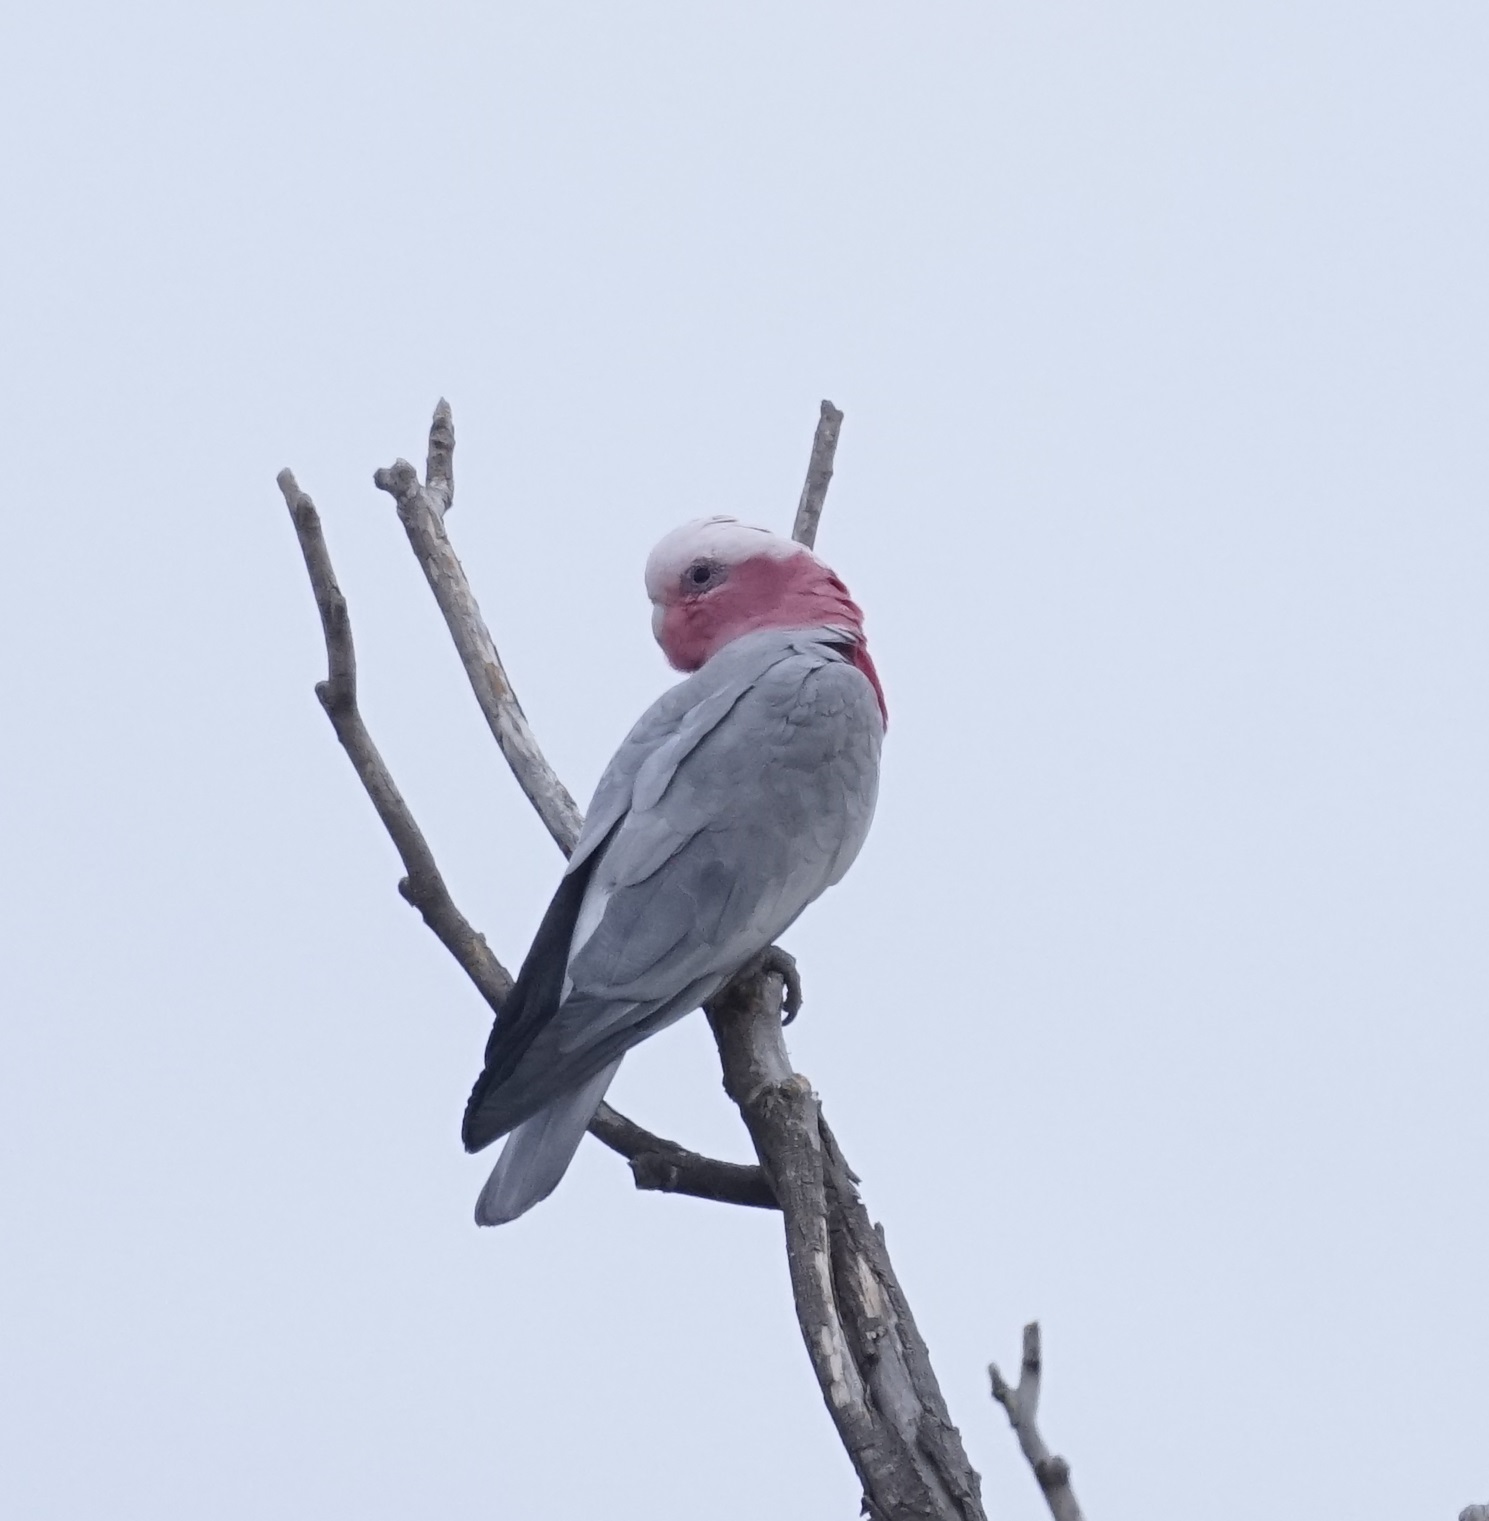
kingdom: Animalia
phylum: Chordata
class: Aves
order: Psittaciformes
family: Psittacidae
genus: Eolophus
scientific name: Eolophus roseicapilla
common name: Galah
